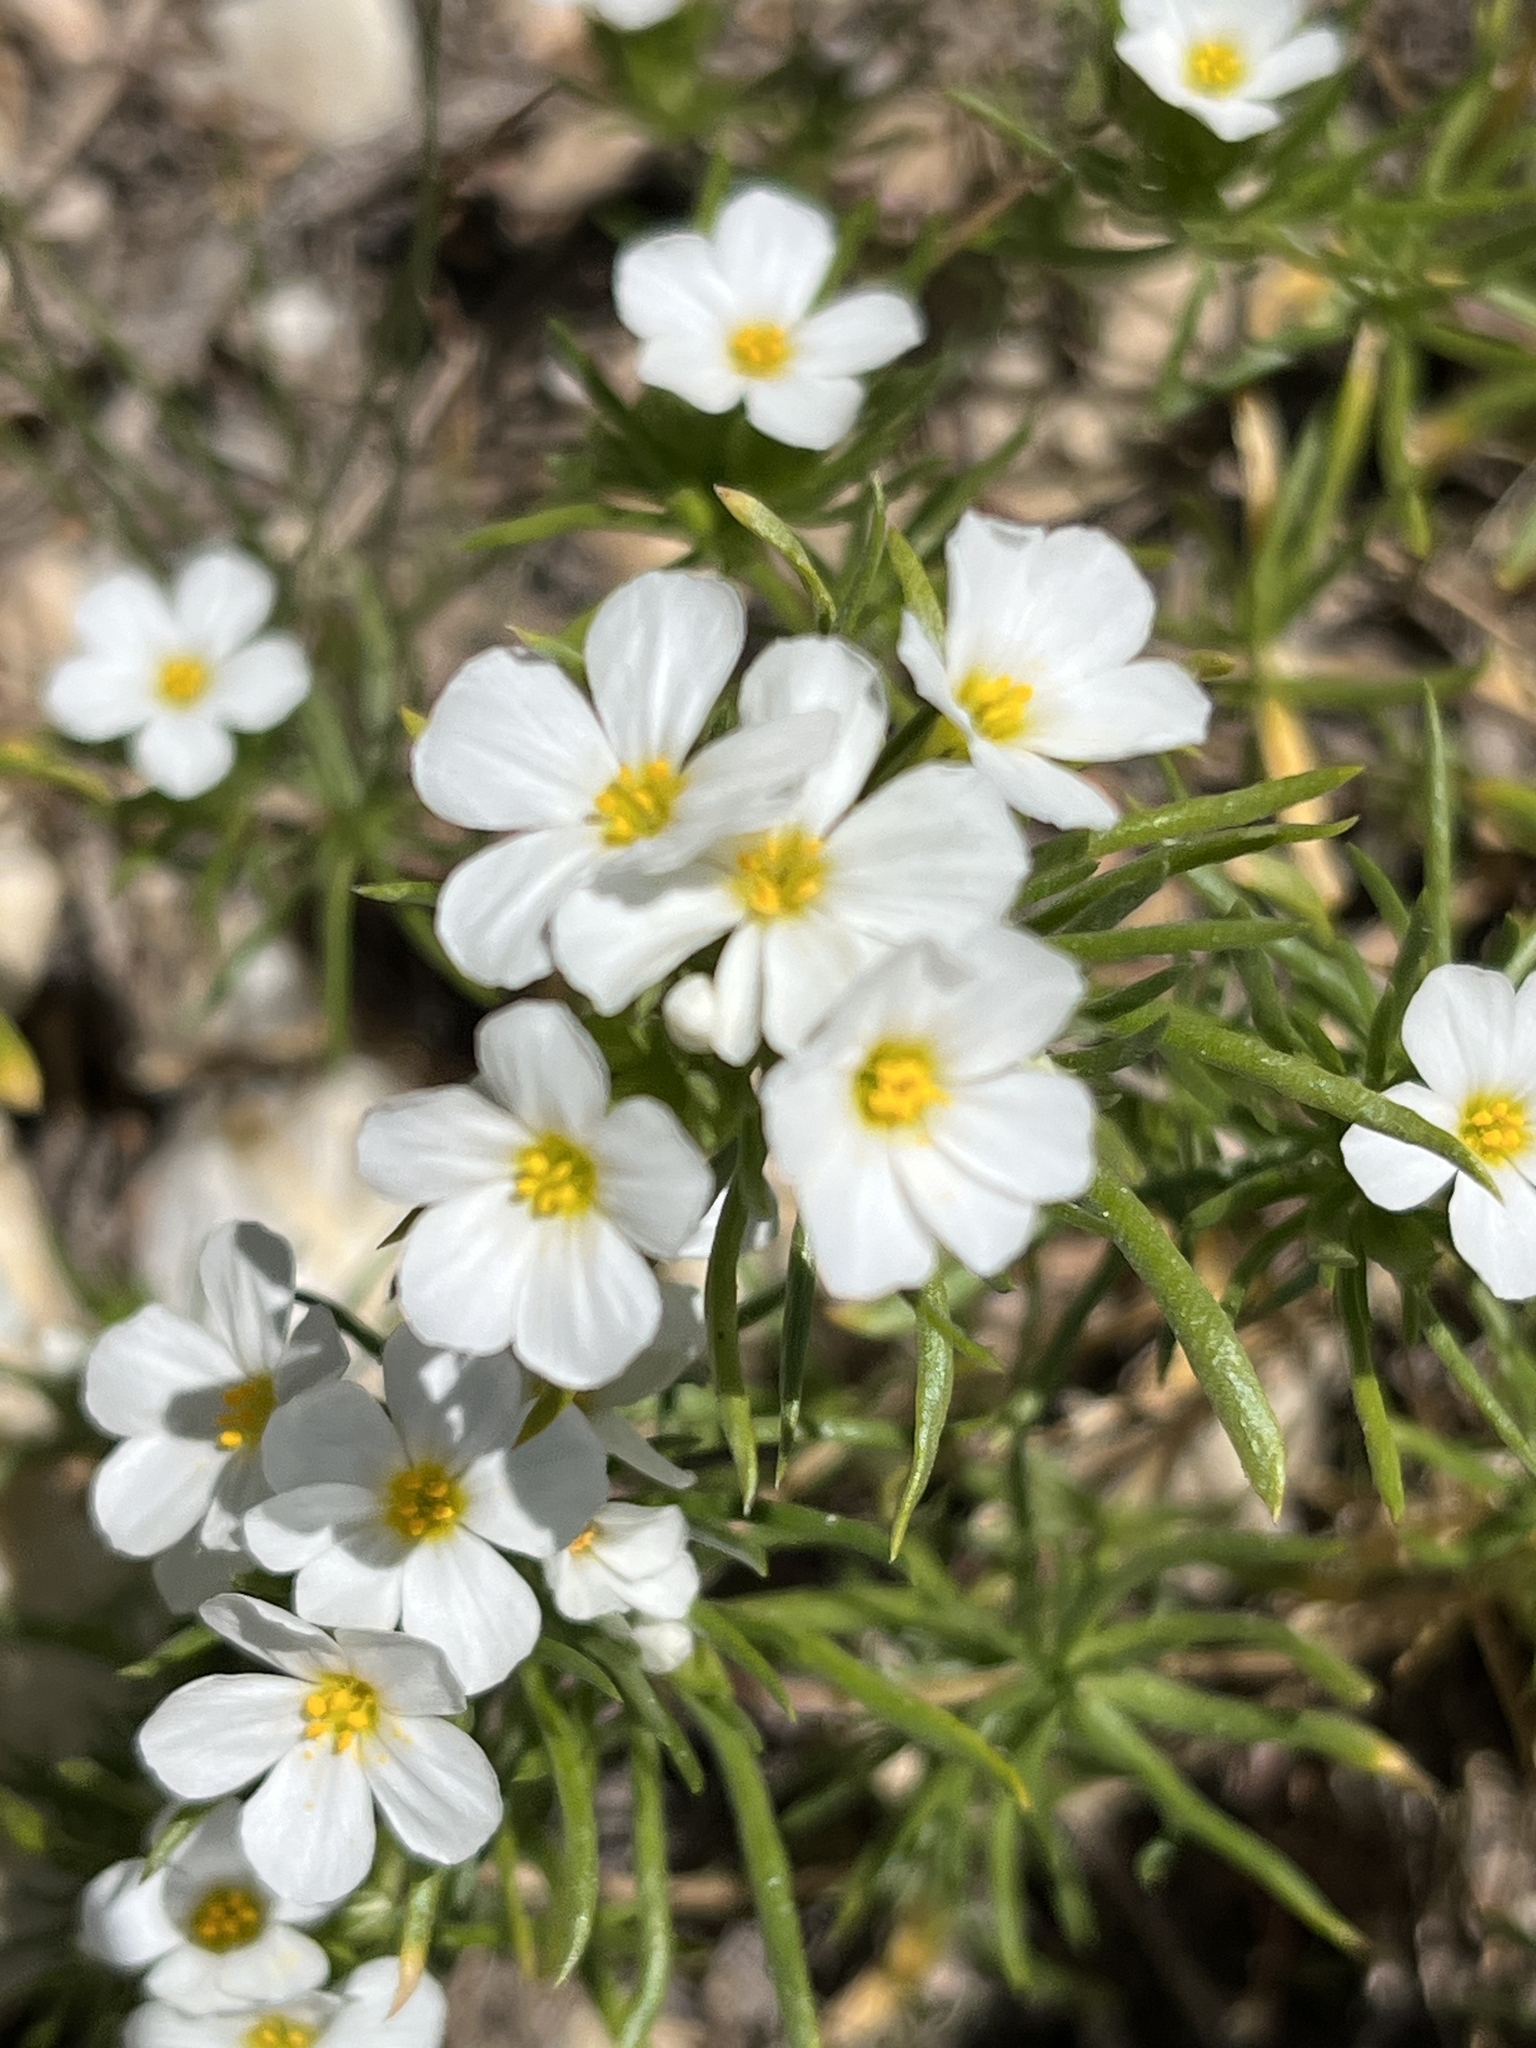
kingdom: Plantae
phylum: Tracheophyta
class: Magnoliopsida
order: Ericales
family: Polemoniaceae
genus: Leptosiphon
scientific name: Leptosiphon nuttallii
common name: Nuttall's linanthus
